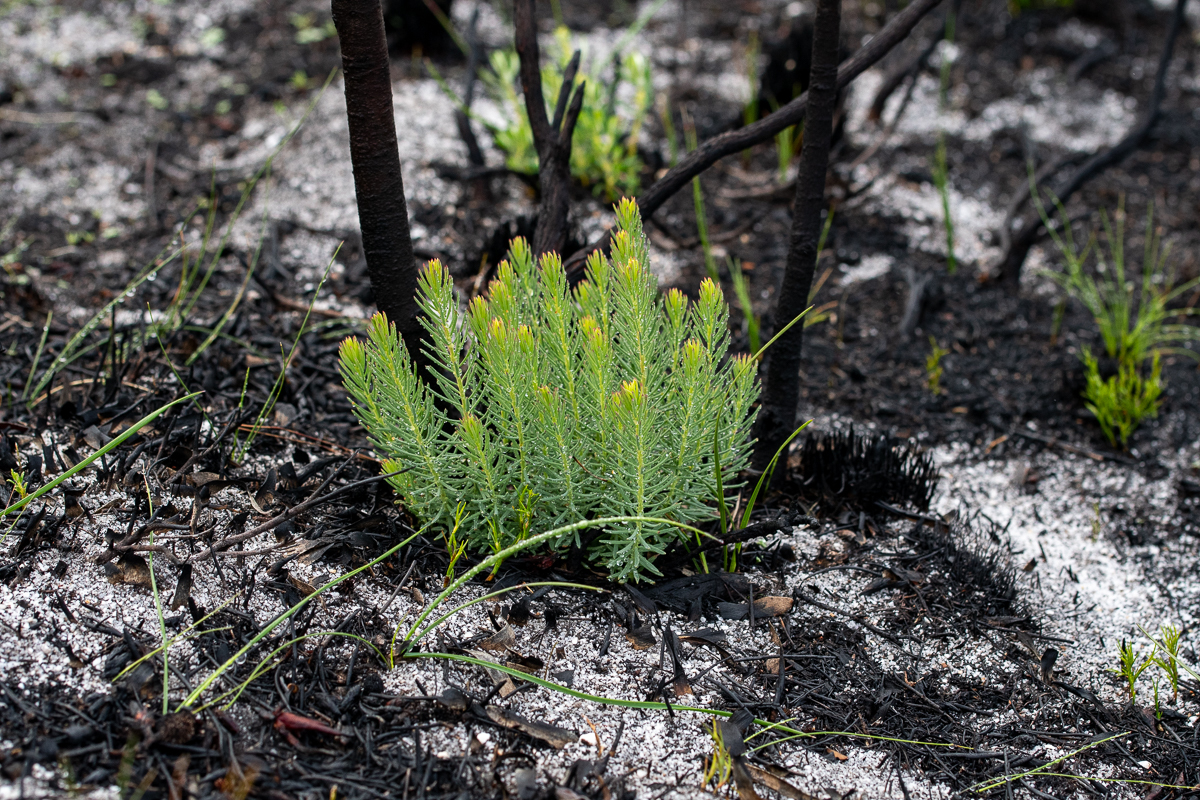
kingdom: Plantae
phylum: Tracheophyta
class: Magnoliopsida
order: Malvales
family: Thymelaeaceae
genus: Gnidia
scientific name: Gnidia pinifolia
